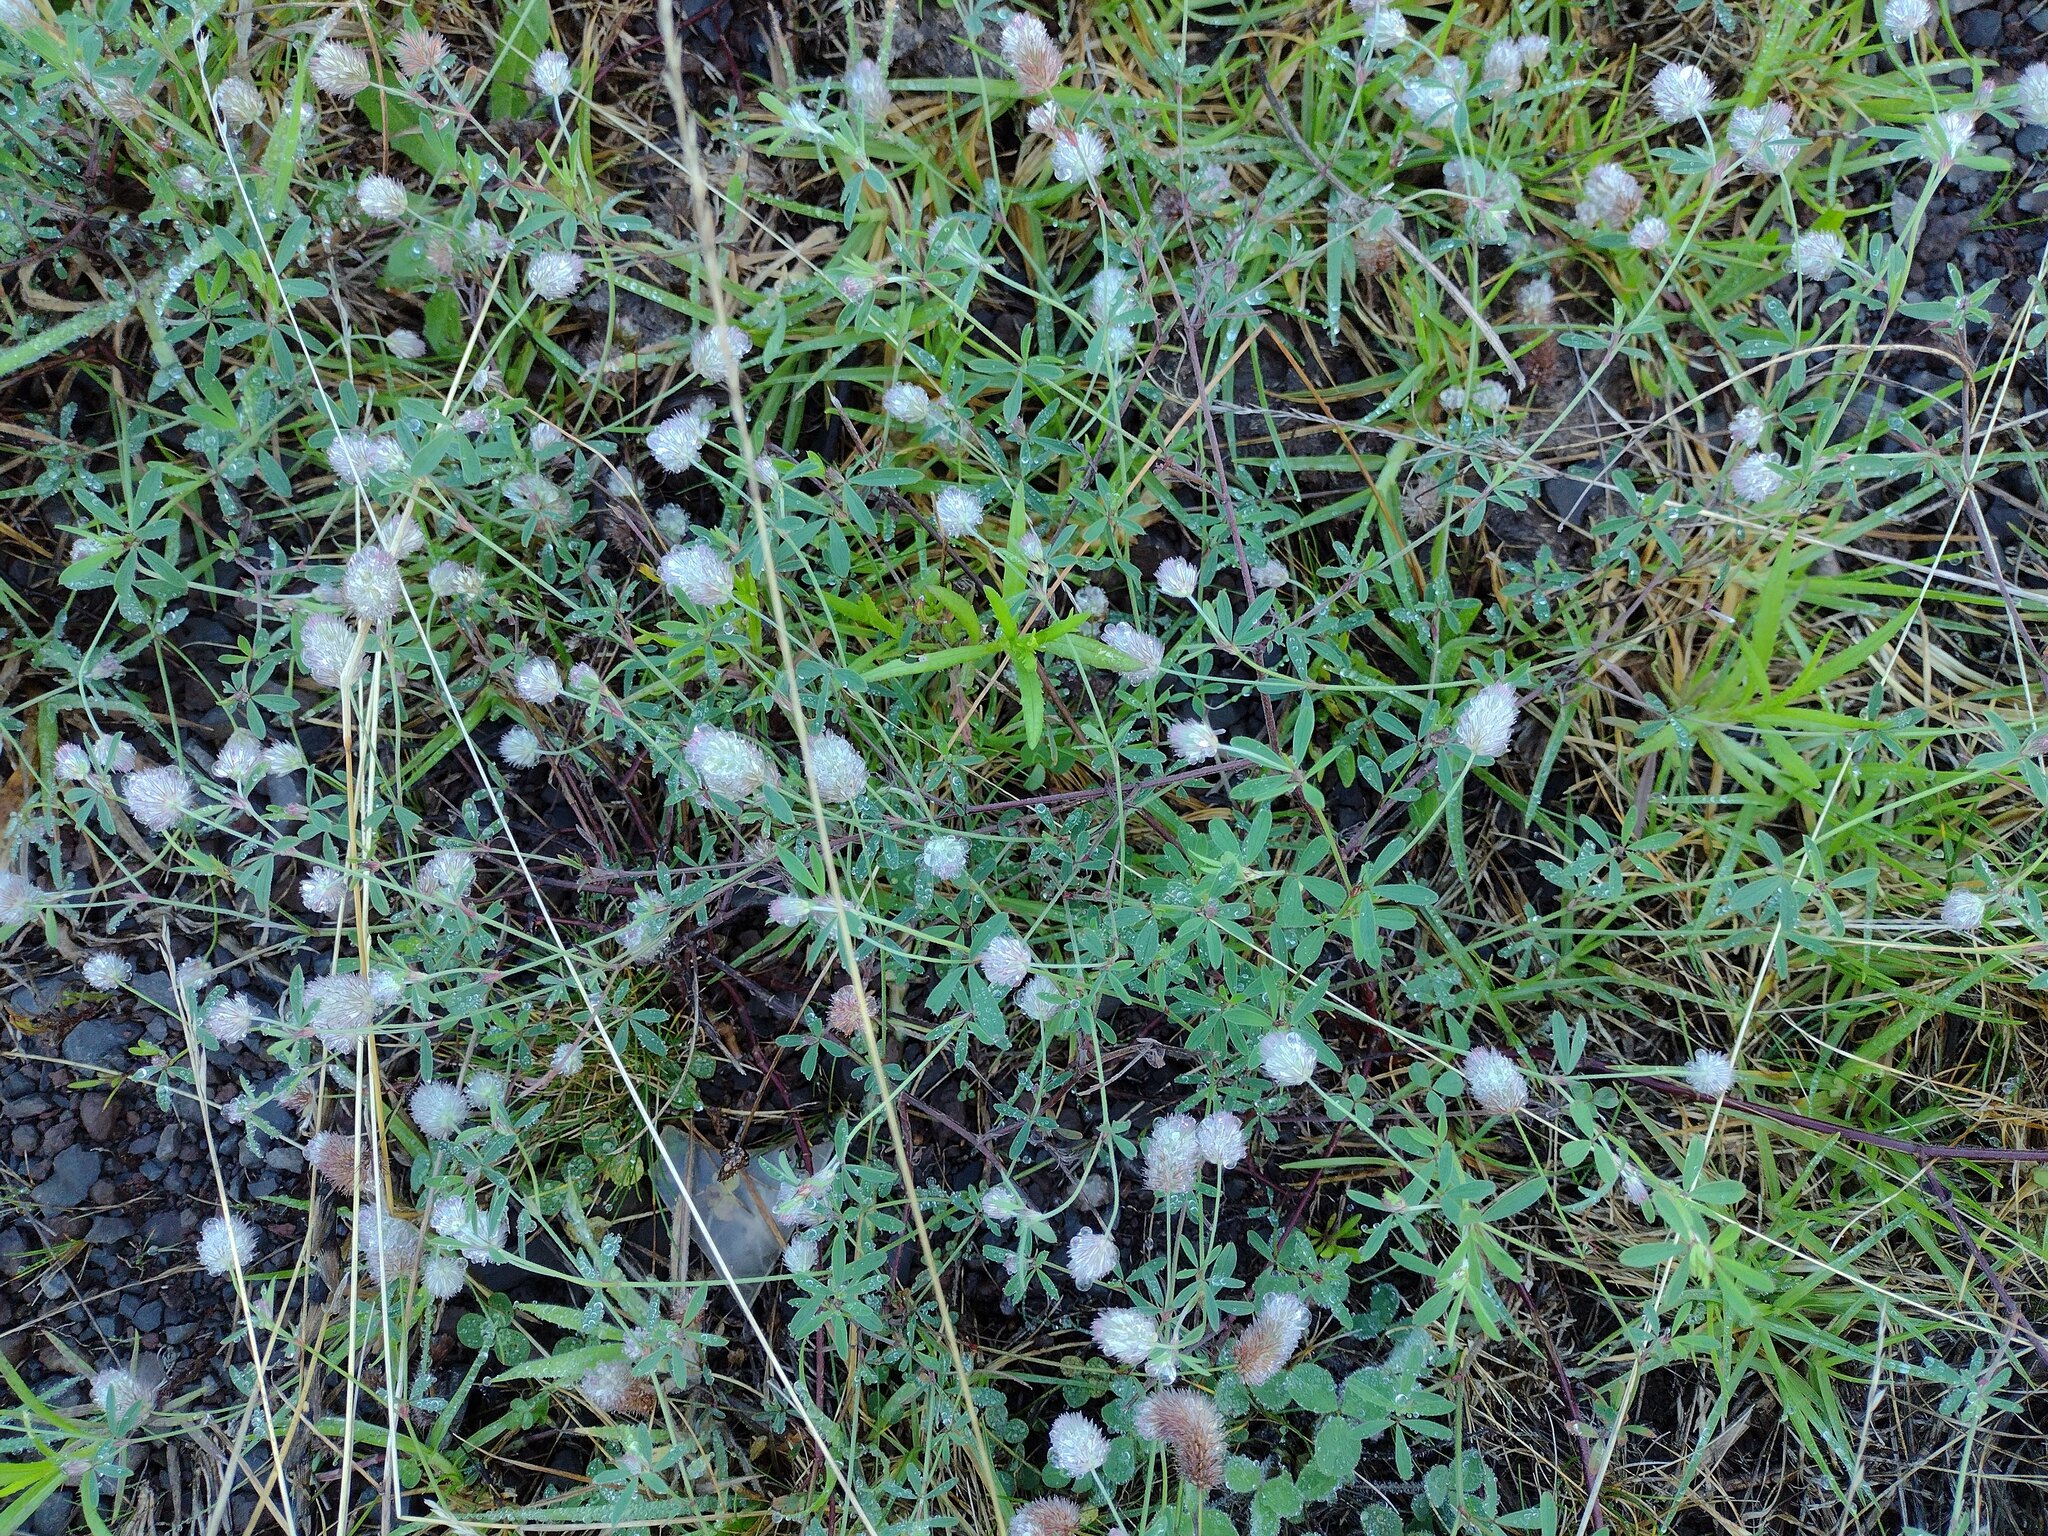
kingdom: Plantae
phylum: Tracheophyta
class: Magnoliopsida
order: Fabales
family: Fabaceae
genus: Trifolium
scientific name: Trifolium arvense
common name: Hare's-foot clover
